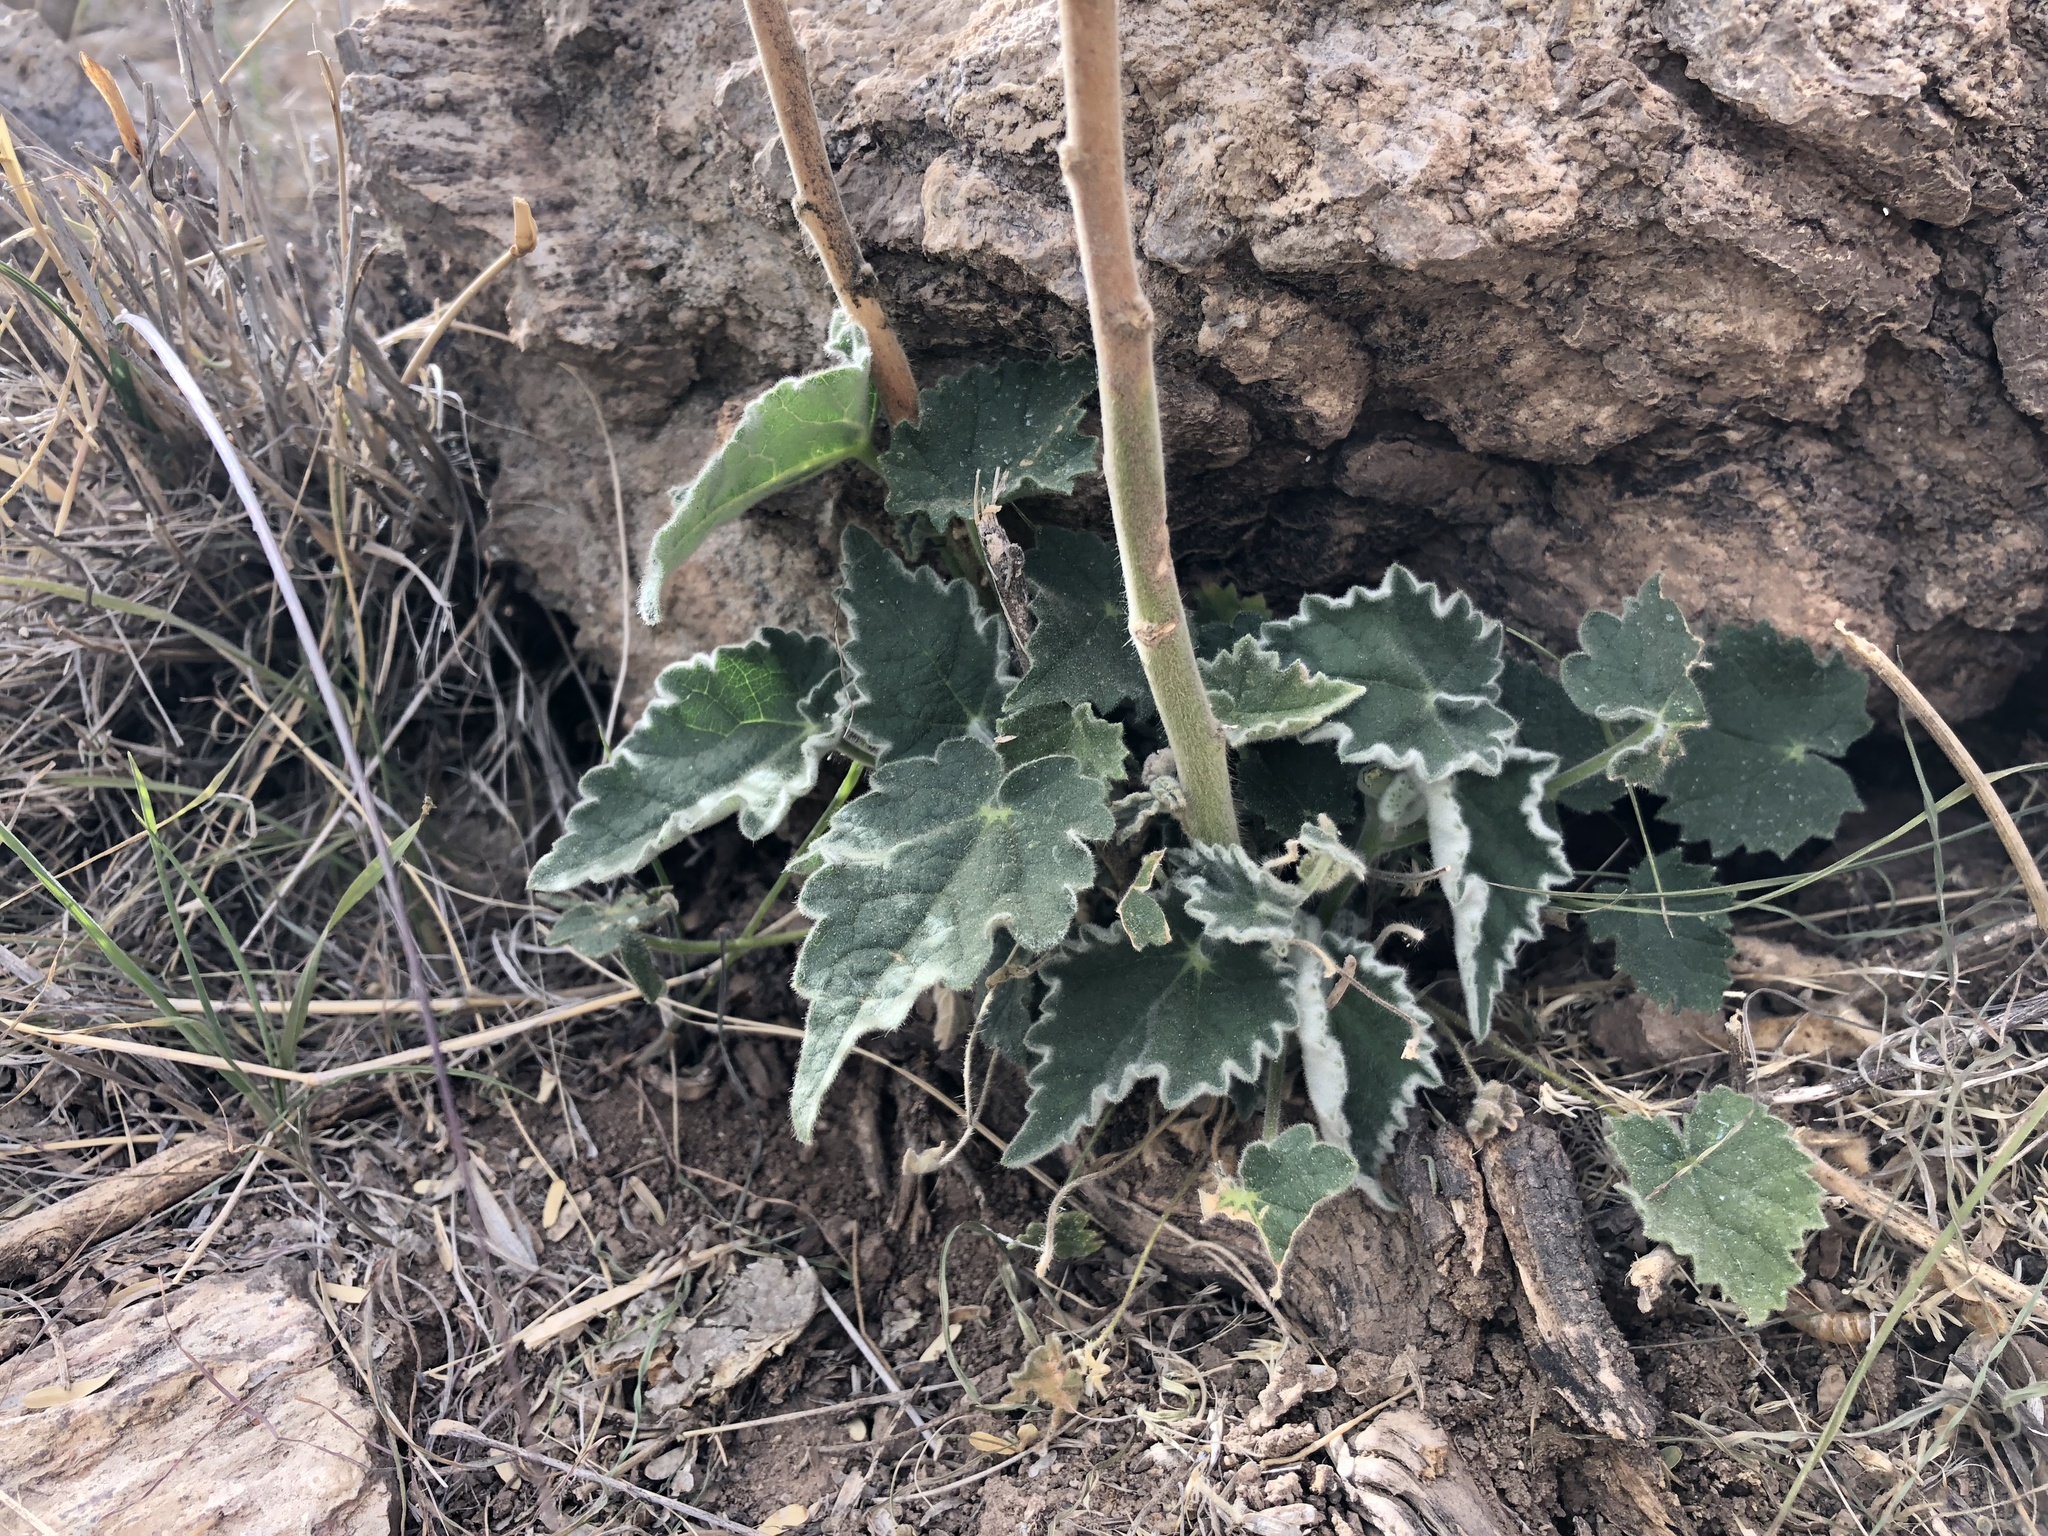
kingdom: Plantae
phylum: Tracheophyta
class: Magnoliopsida
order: Malvales
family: Malvaceae
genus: Abutilon
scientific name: Abutilon parishii
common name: Parish's abutilon
